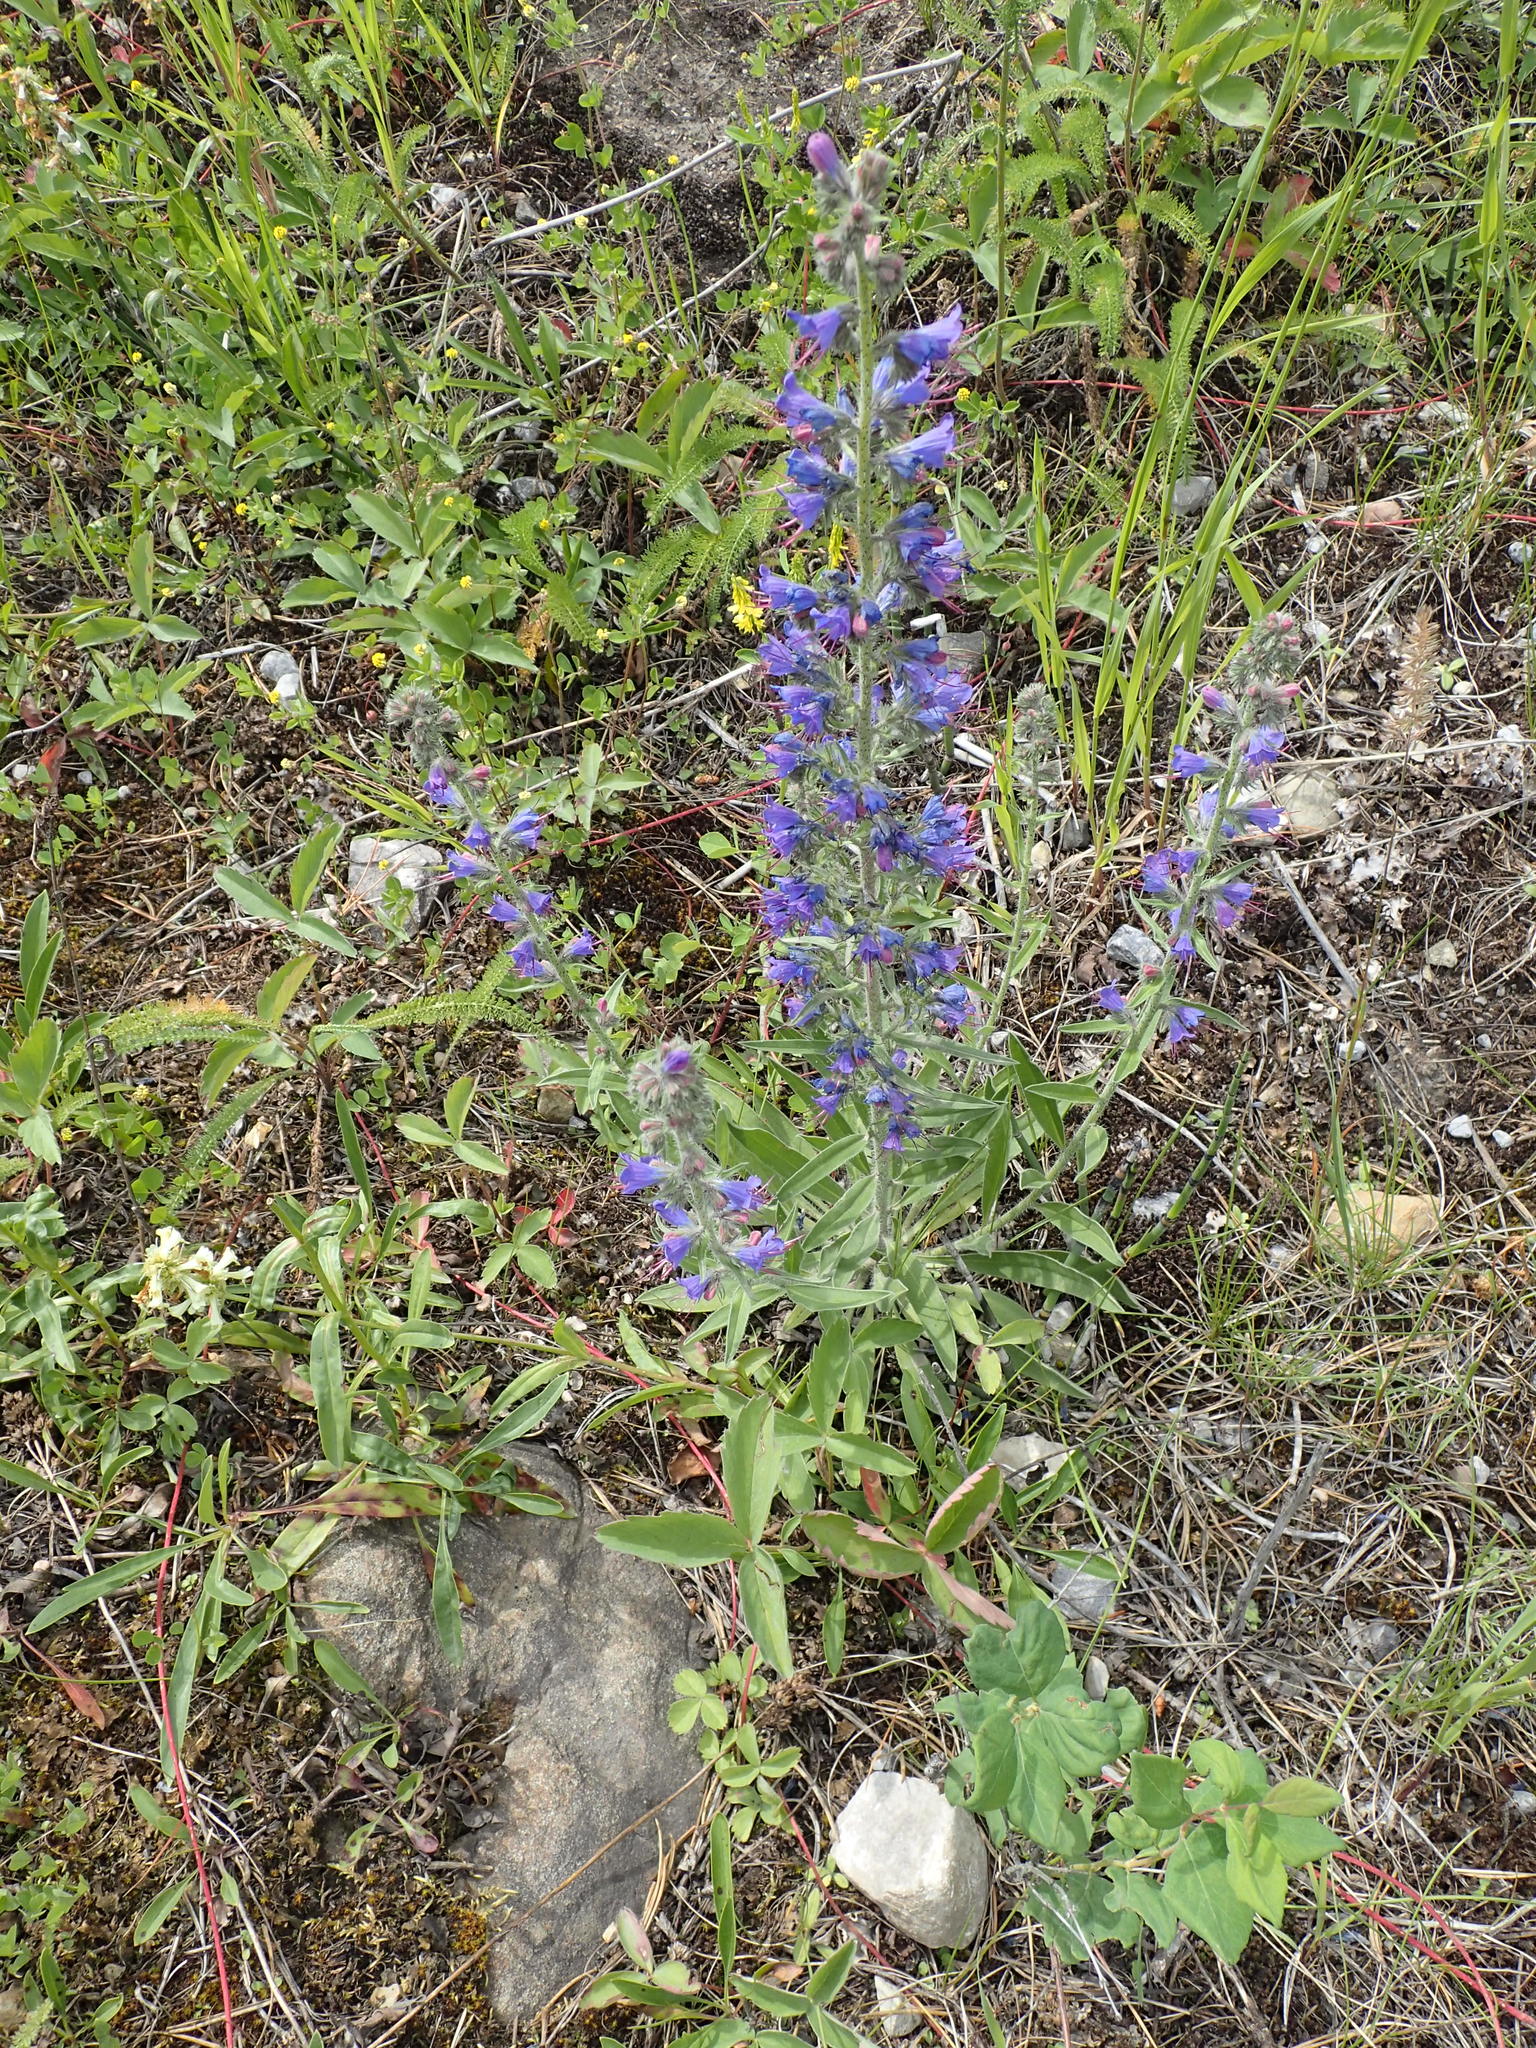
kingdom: Plantae
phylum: Tracheophyta
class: Magnoliopsida
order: Boraginales
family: Boraginaceae
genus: Echium
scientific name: Echium vulgare
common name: Common viper's bugloss
